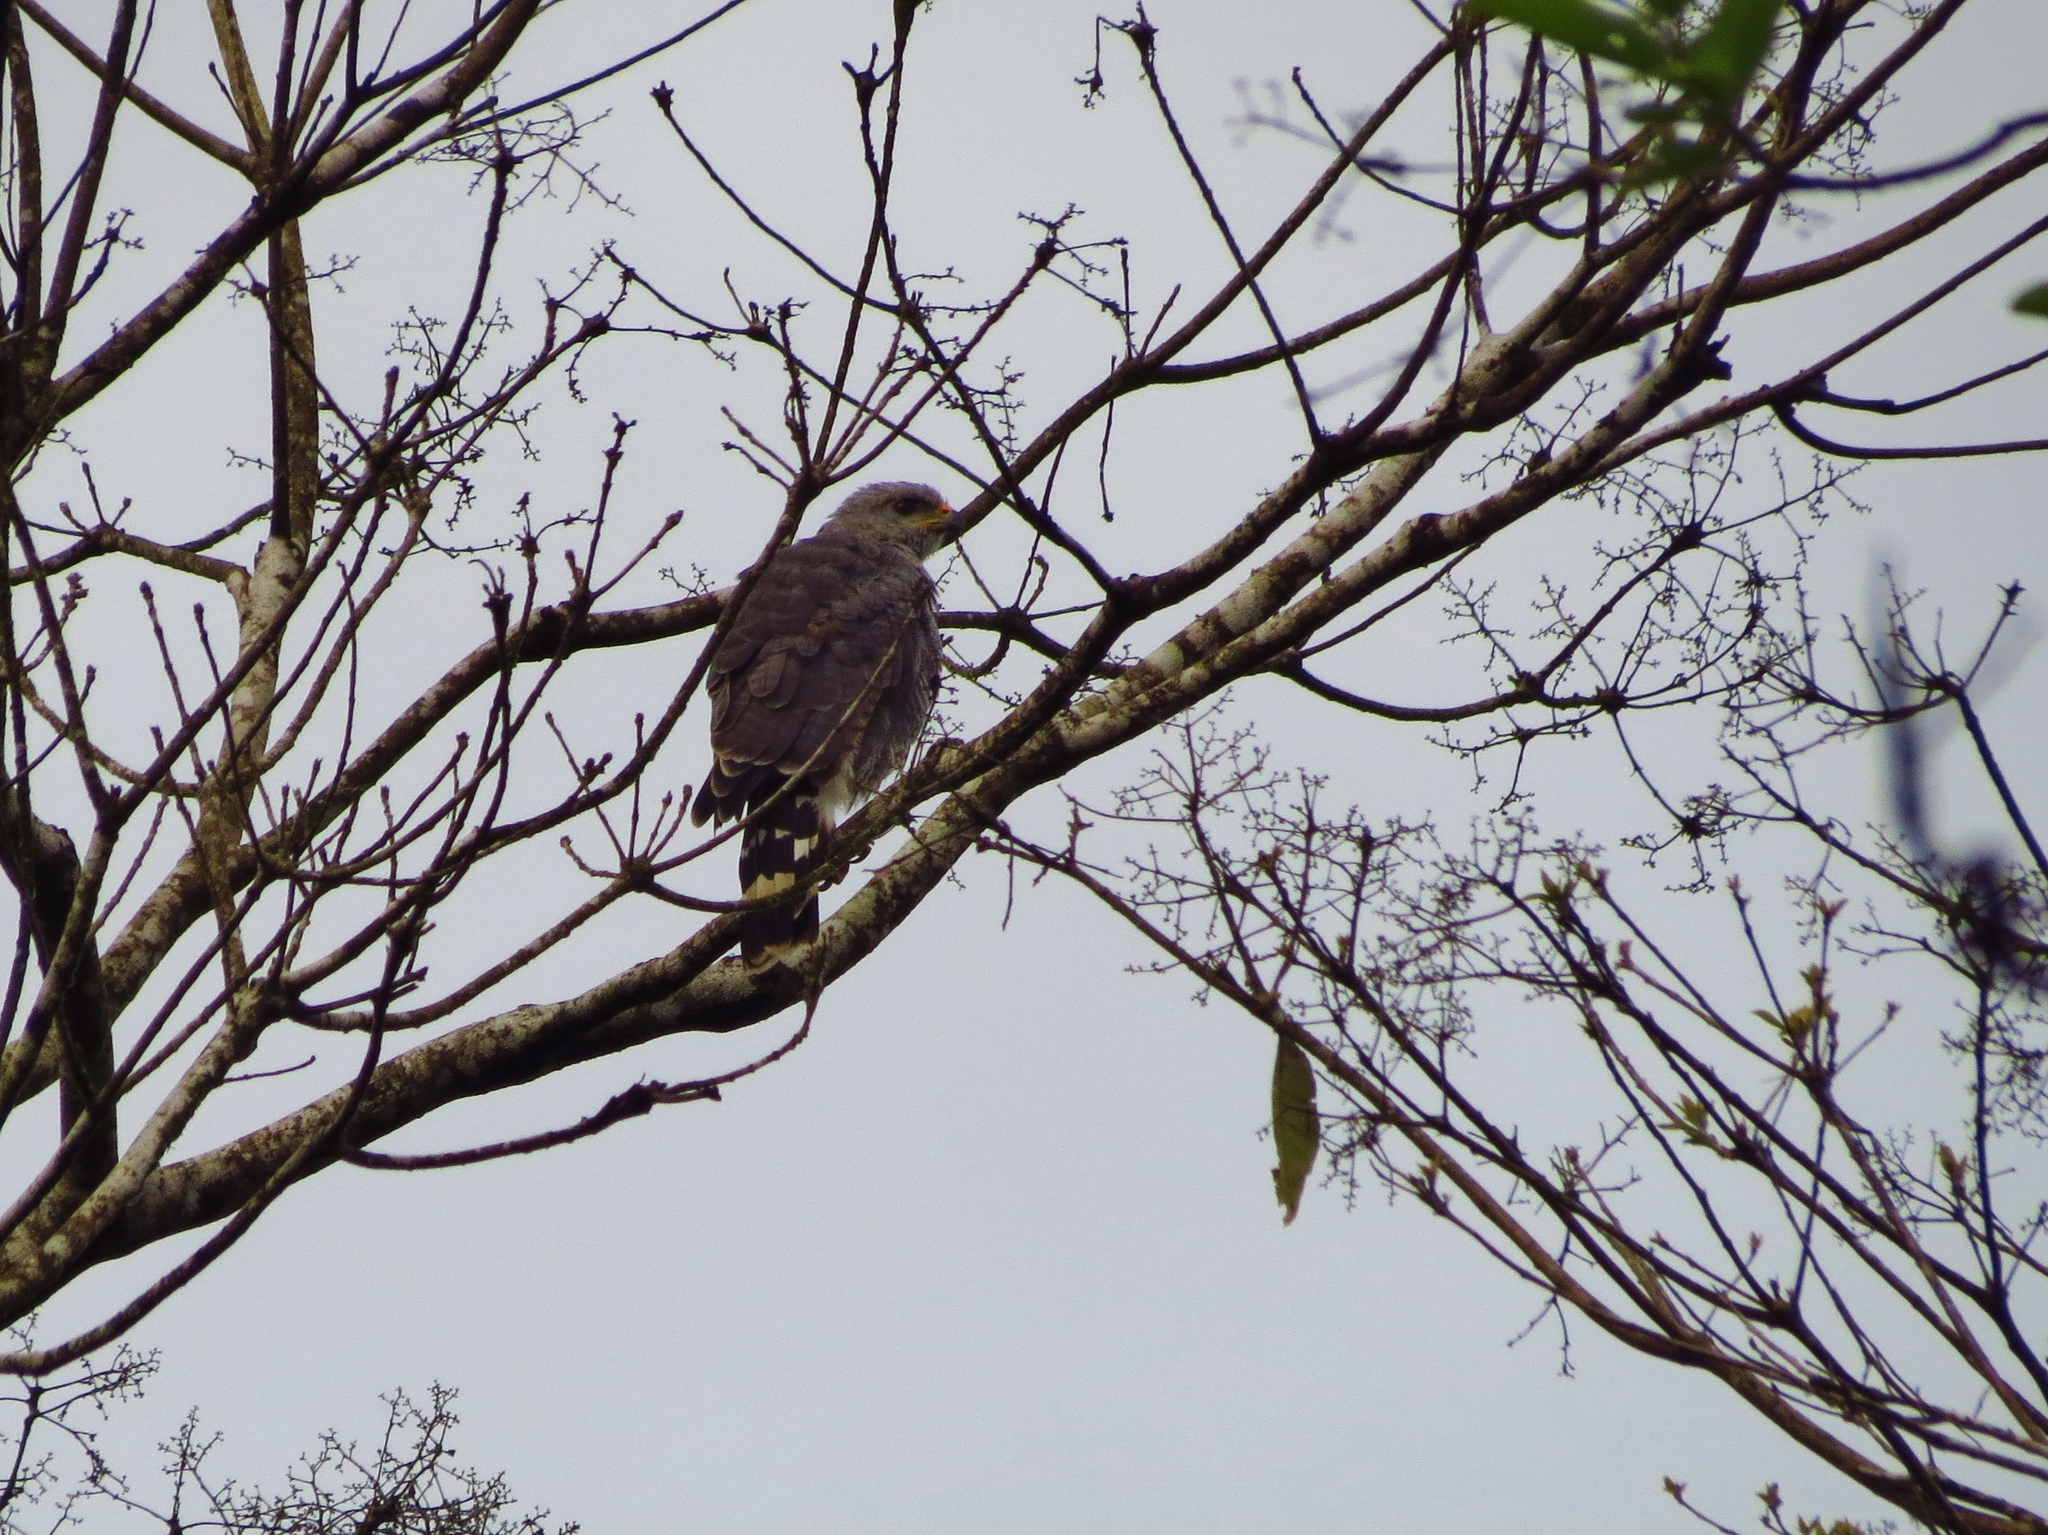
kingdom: Animalia
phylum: Chordata
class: Aves
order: Accipitriformes
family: Accipitridae
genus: Buteo
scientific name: Buteo nitidus
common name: Grey-lined hawk
